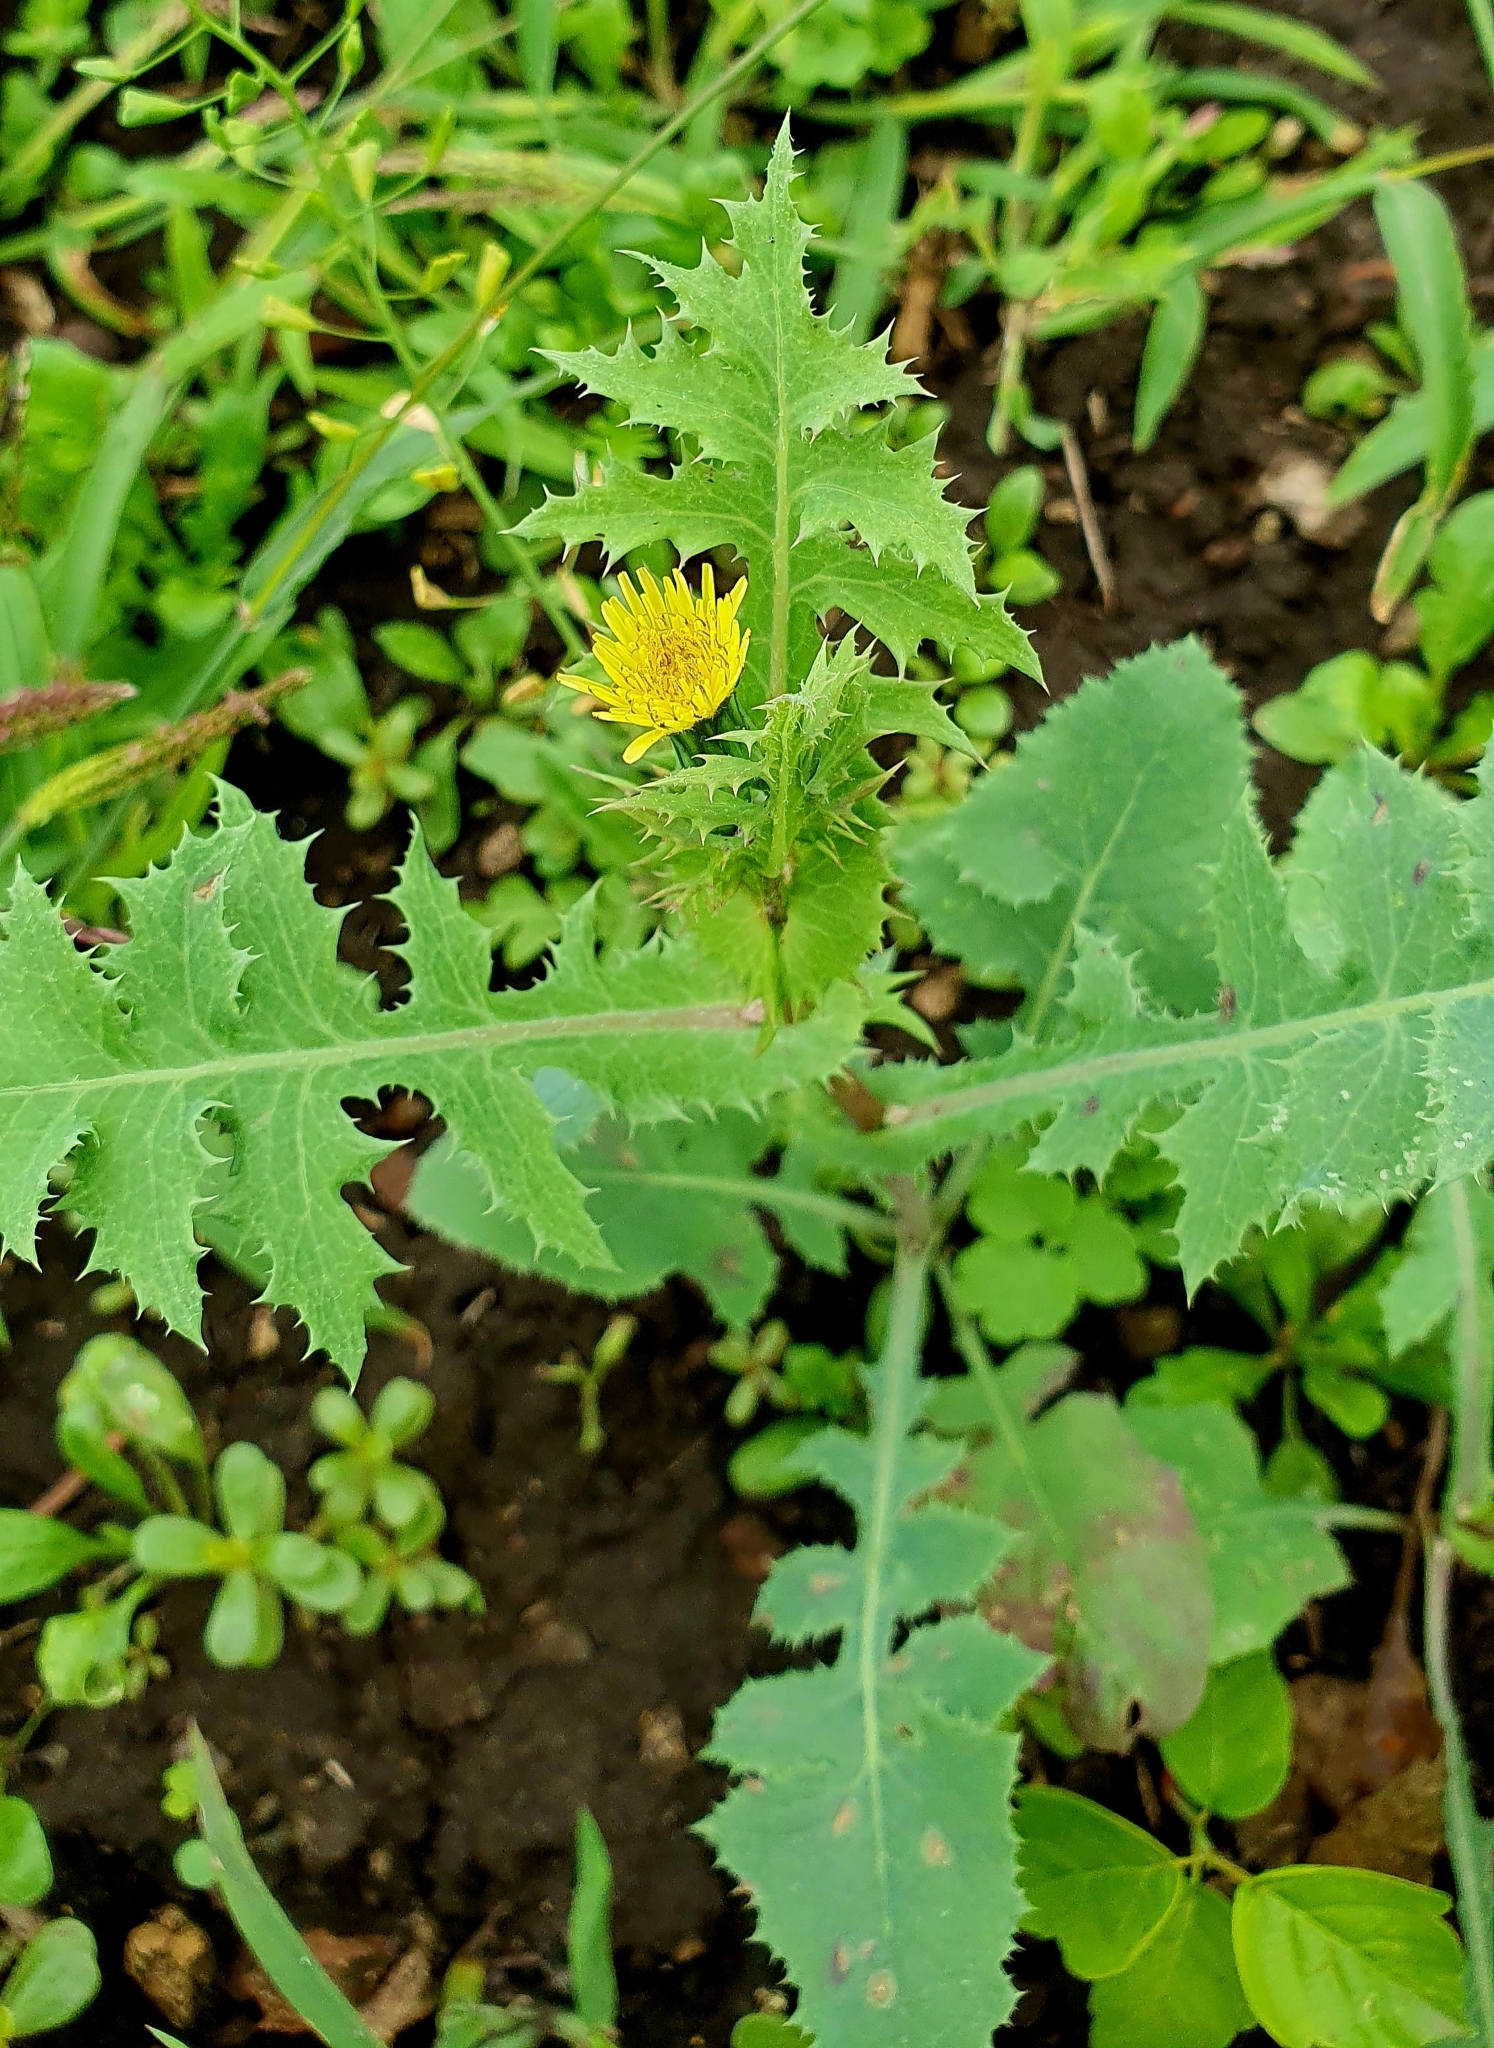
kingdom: Plantae
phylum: Tracheophyta
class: Magnoliopsida
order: Asterales
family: Asteraceae
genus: Sonchus
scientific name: Sonchus oleraceus
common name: Common sowthistle
